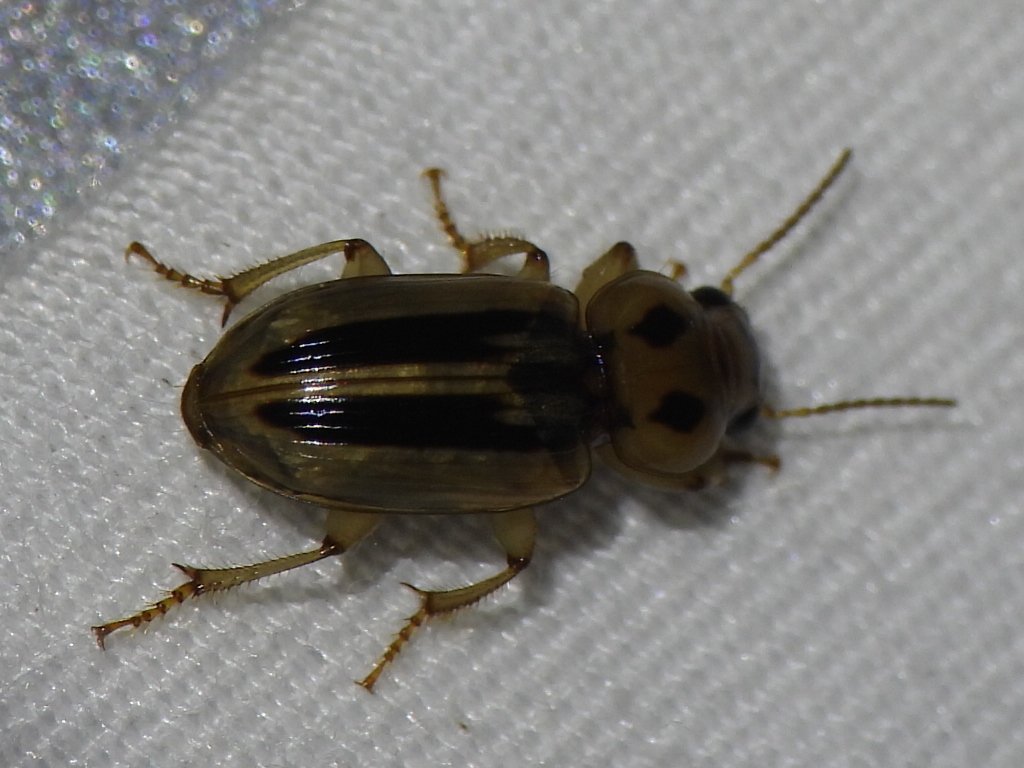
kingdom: Animalia
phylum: Arthropoda
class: Insecta
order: Coleoptera
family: Carabidae
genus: Stenolophus
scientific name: Stenolophus lineola
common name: Lined stenolophus
